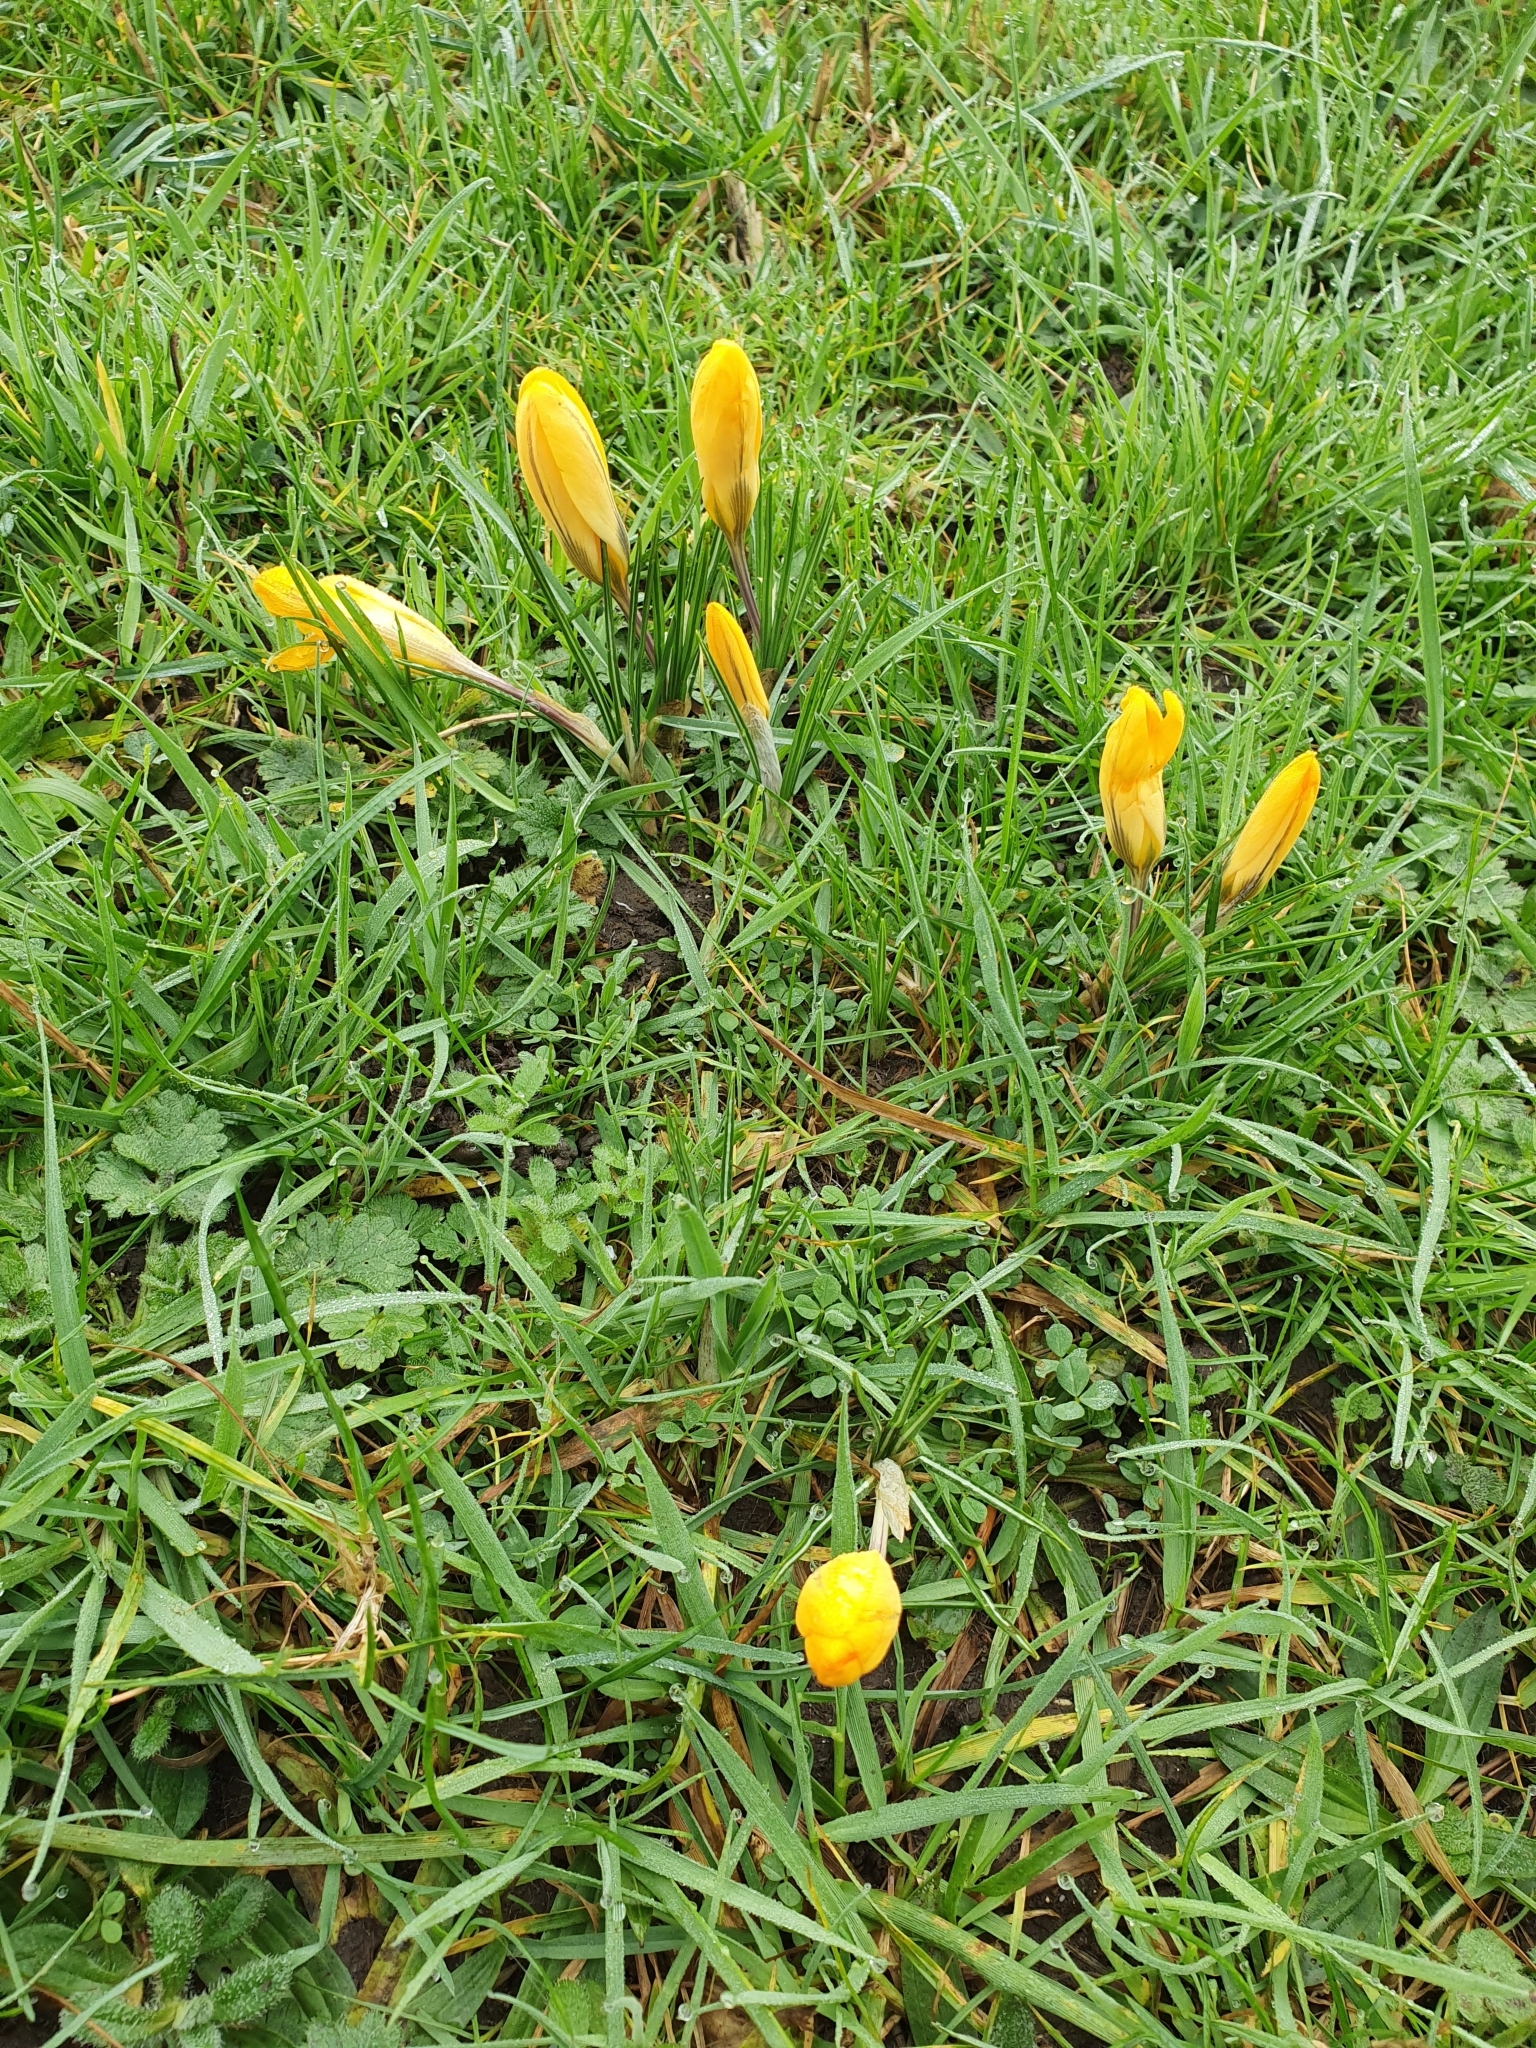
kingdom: Plantae
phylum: Tracheophyta
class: Liliopsida
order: Asparagales
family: Iridaceae
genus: Crocus
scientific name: Crocus luteus
